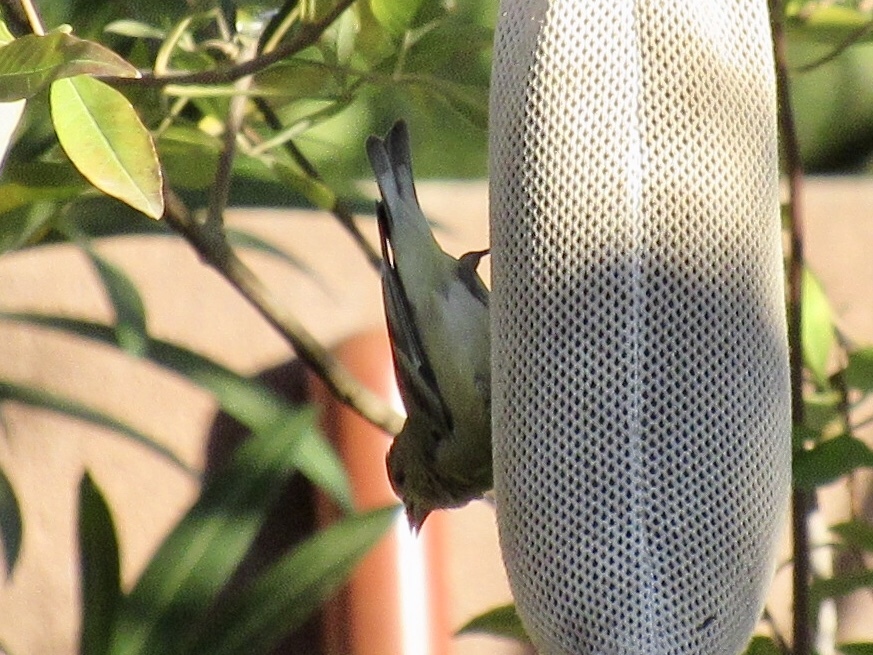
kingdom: Animalia
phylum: Chordata
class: Aves
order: Passeriformes
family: Fringillidae
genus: Spinus
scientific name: Spinus psaltria
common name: Lesser goldfinch
